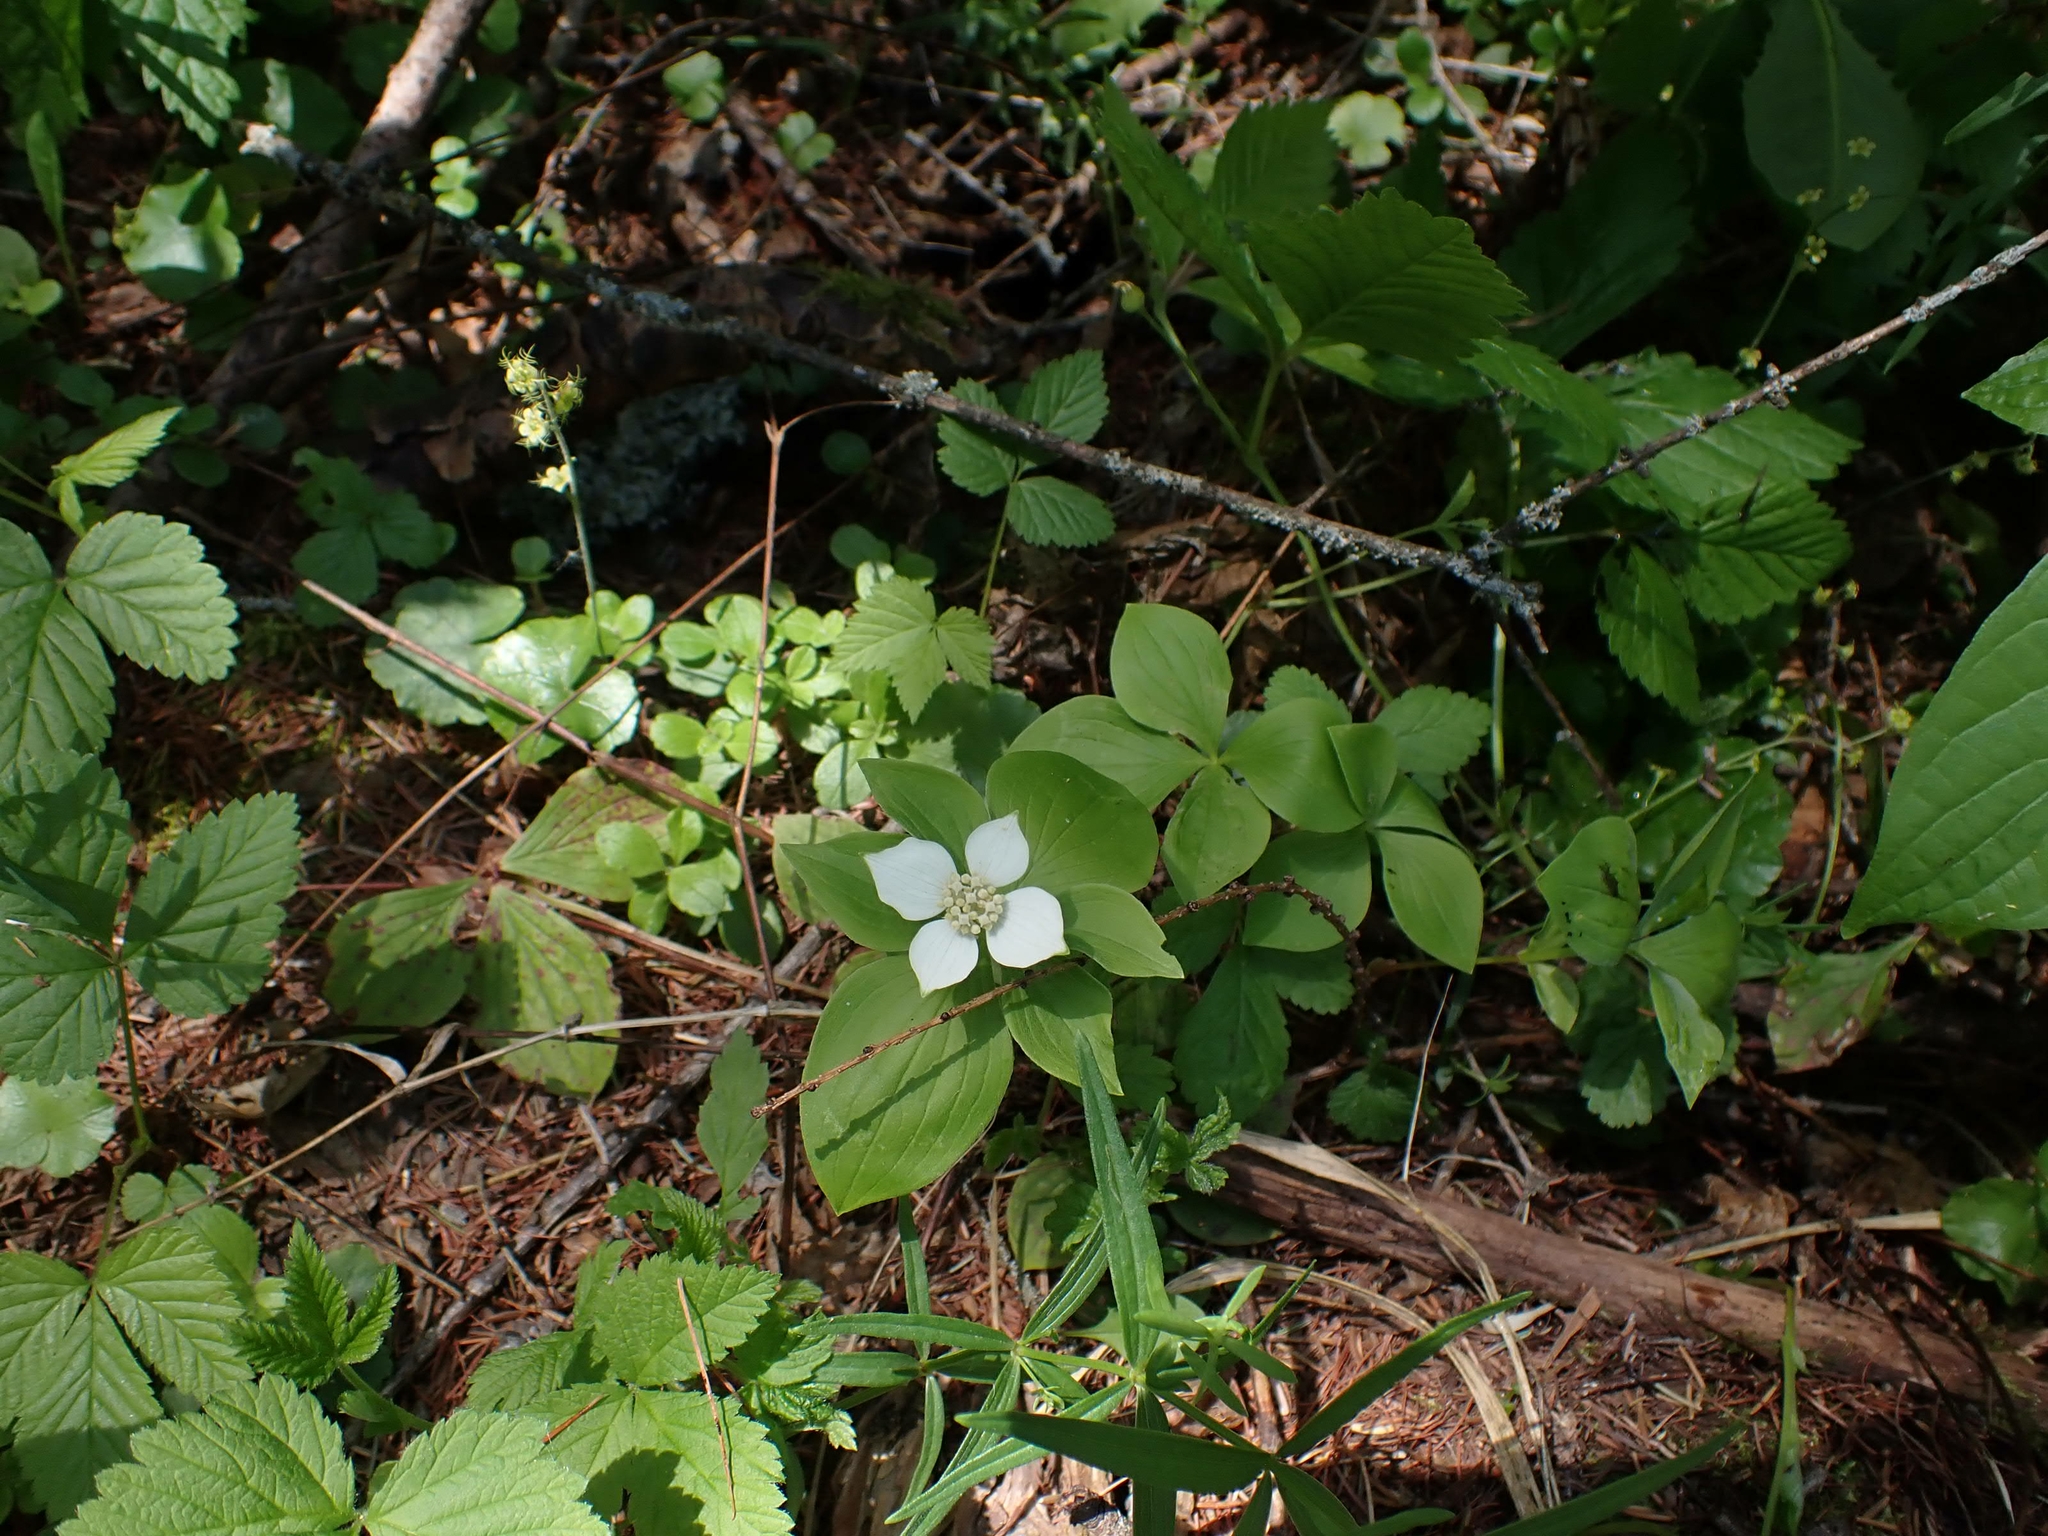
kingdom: Plantae
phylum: Tracheophyta
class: Magnoliopsida
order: Cornales
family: Cornaceae
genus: Cornus
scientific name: Cornus canadensis
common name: Creeping dogwood
